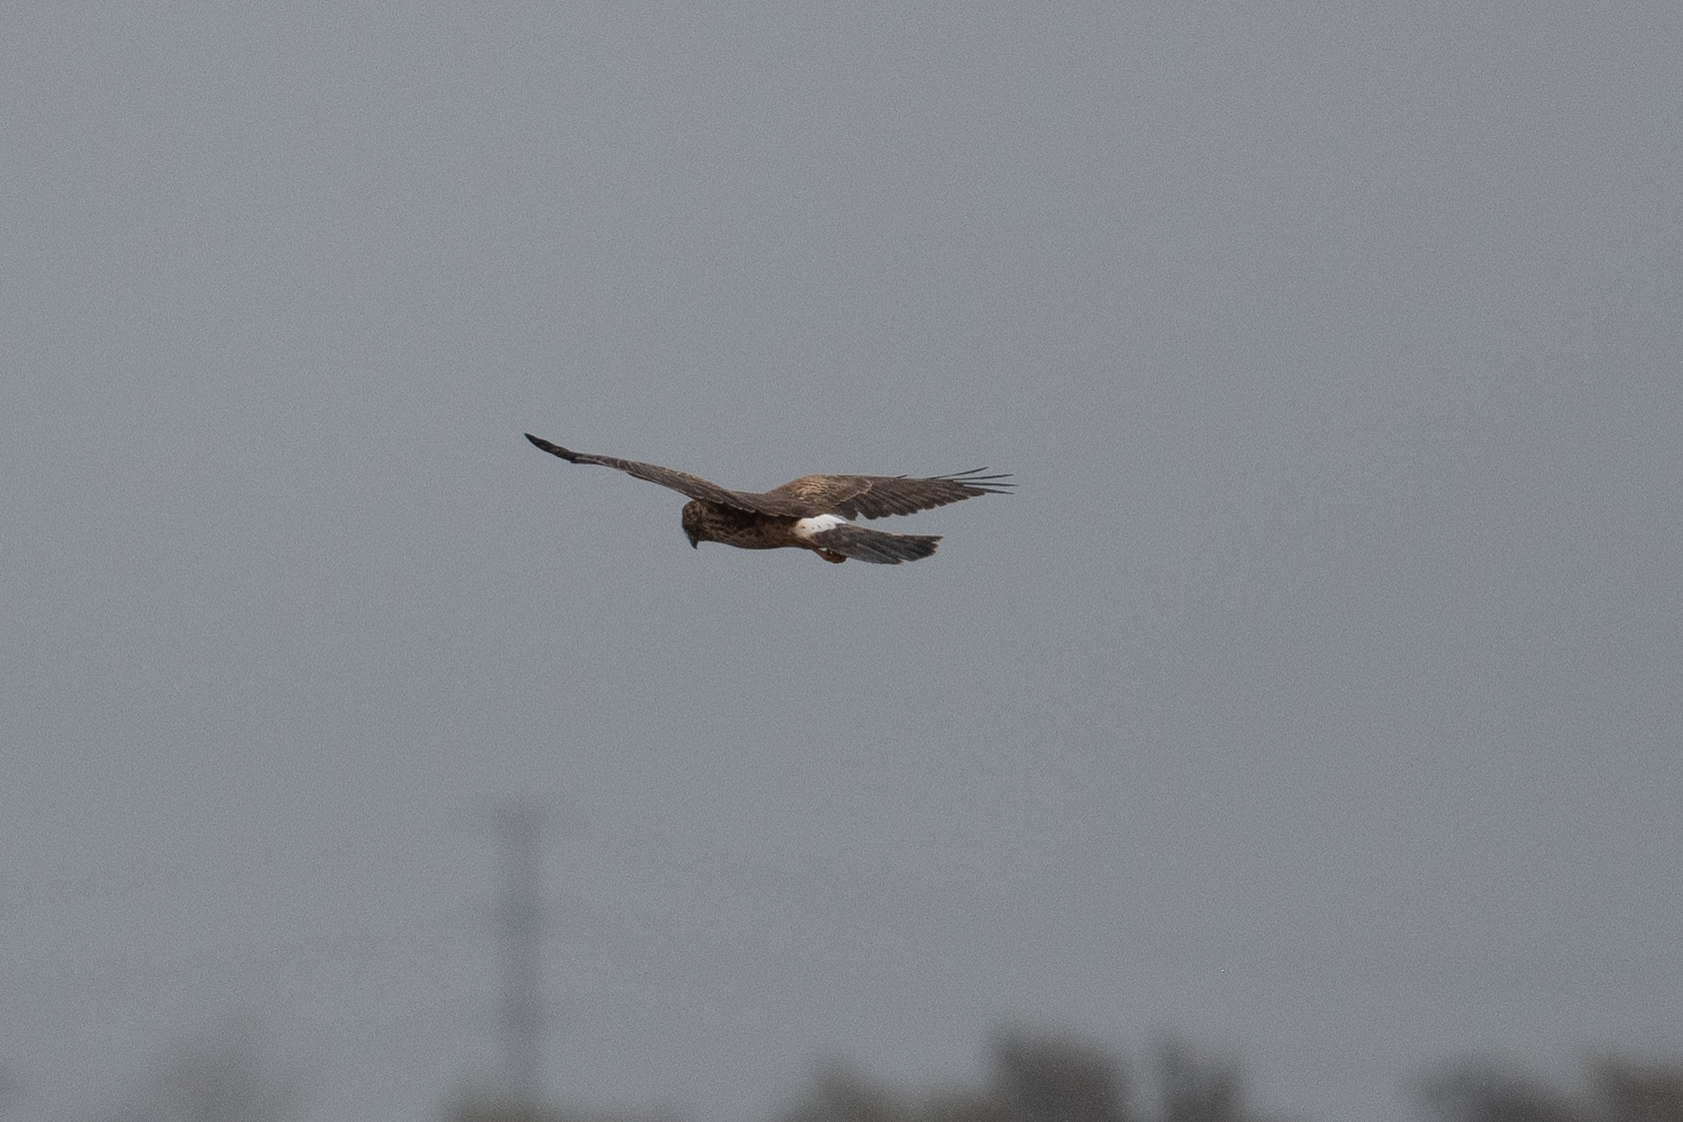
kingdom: Animalia
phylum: Chordata
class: Aves
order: Accipitriformes
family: Accipitridae
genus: Circus
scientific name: Circus cyaneus
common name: Hen harrier
